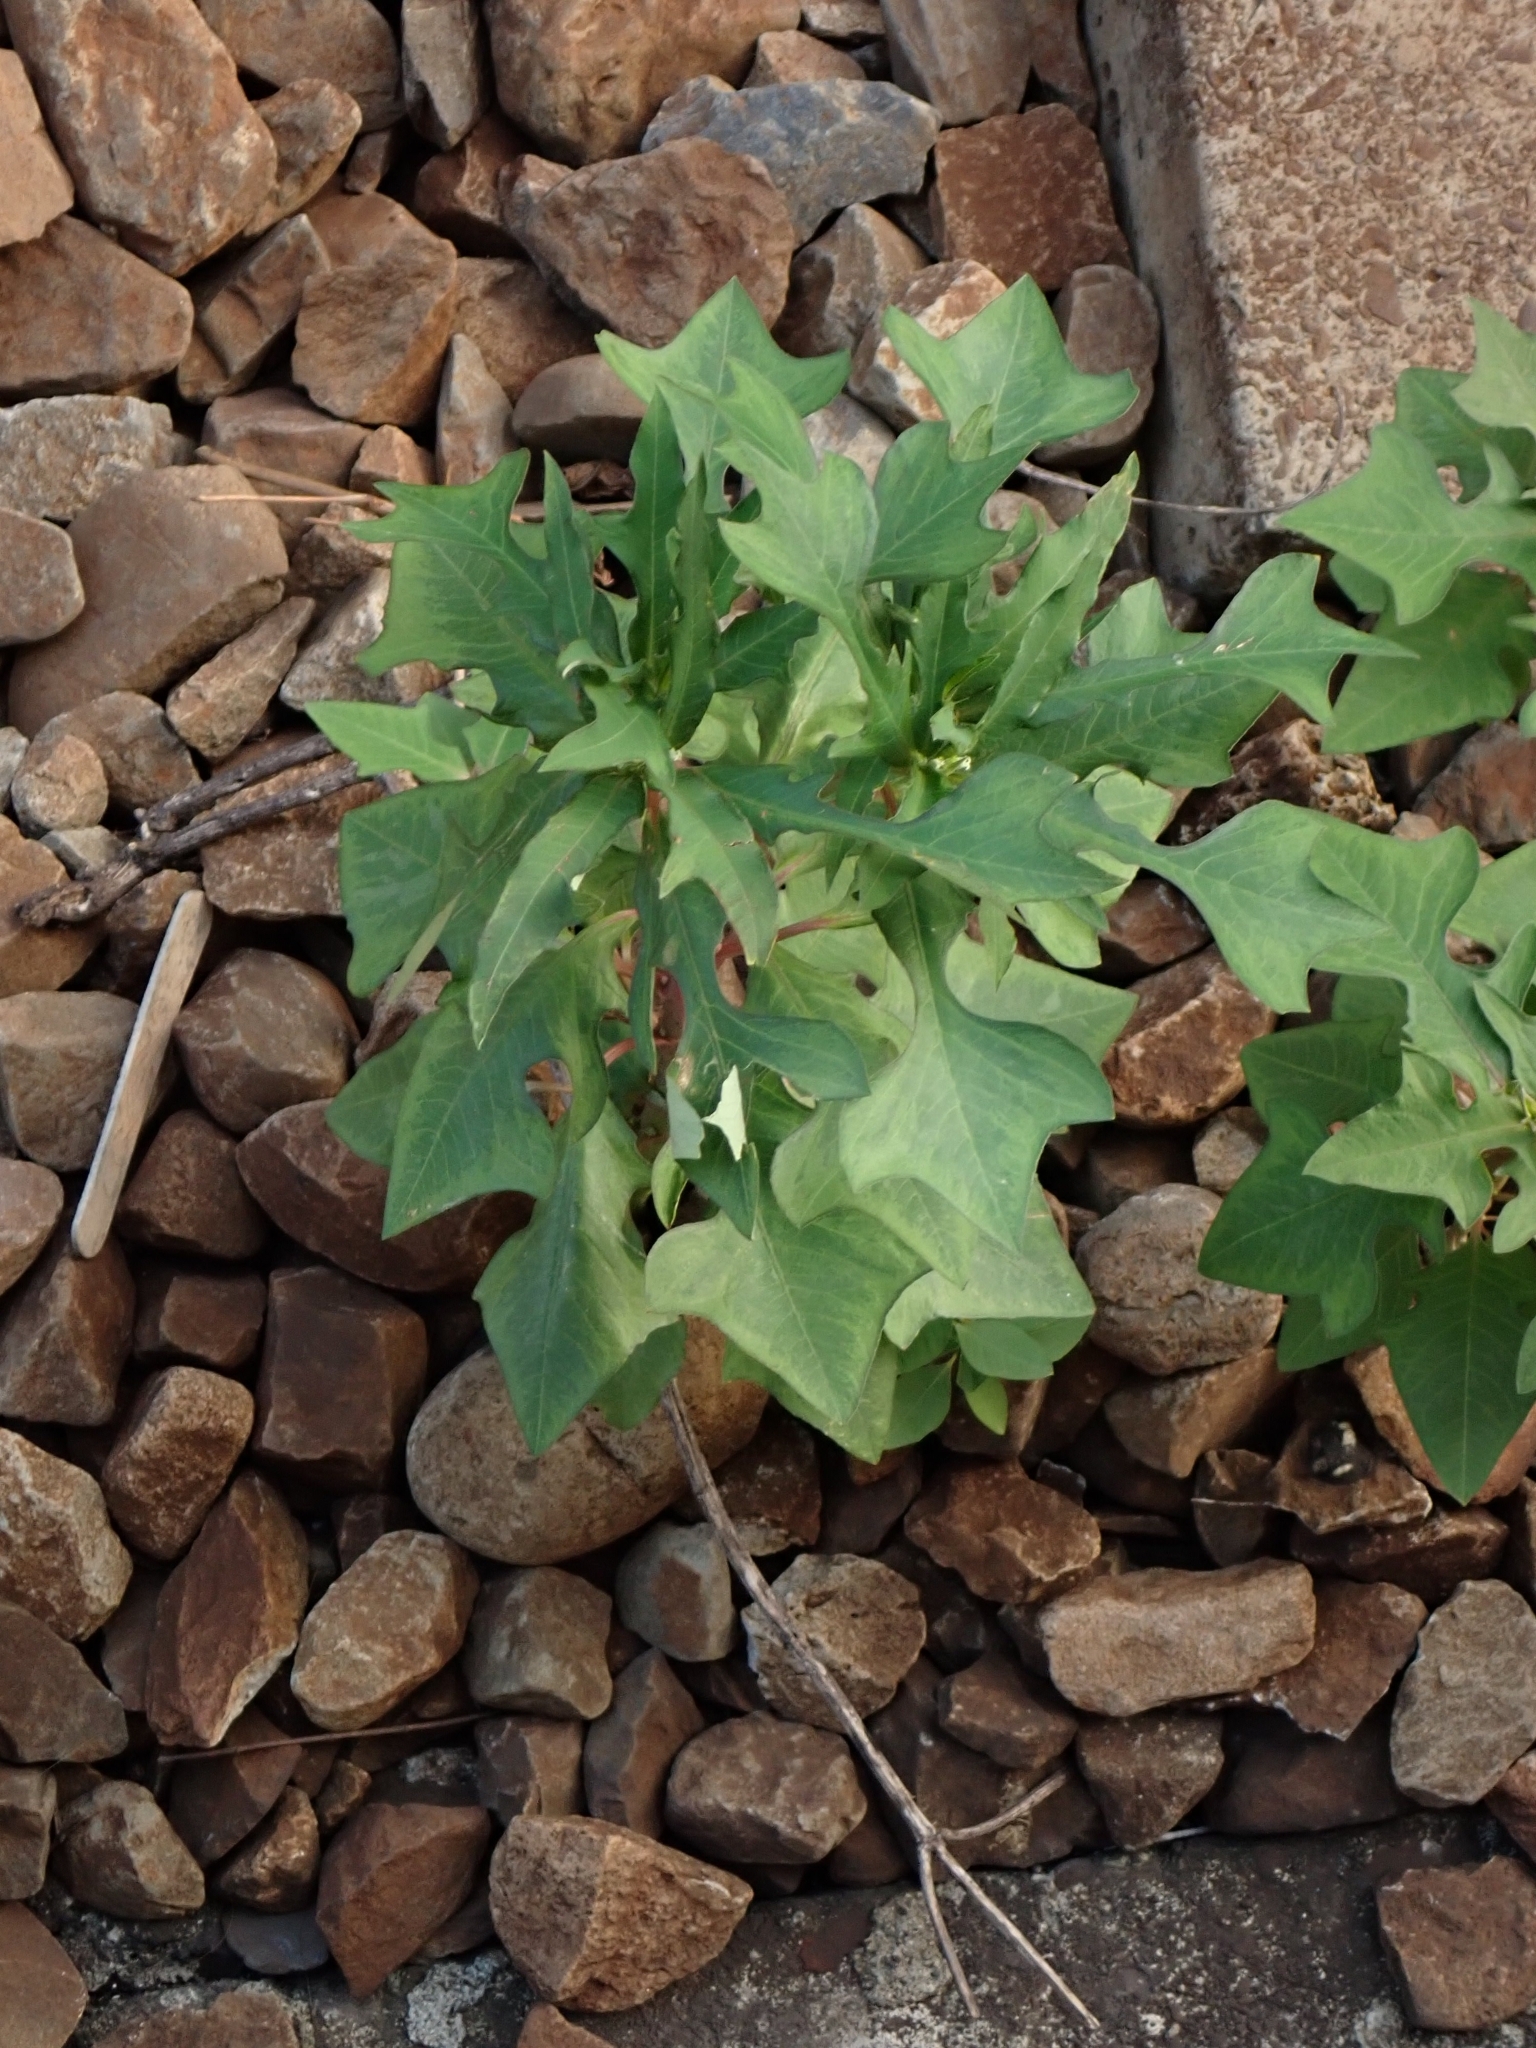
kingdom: Plantae
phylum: Tracheophyta
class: Magnoliopsida
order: Malpighiales
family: Euphorbiaceae
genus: Euphorbia
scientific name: Euphorbia heterophylla
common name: Mexican fireplant
